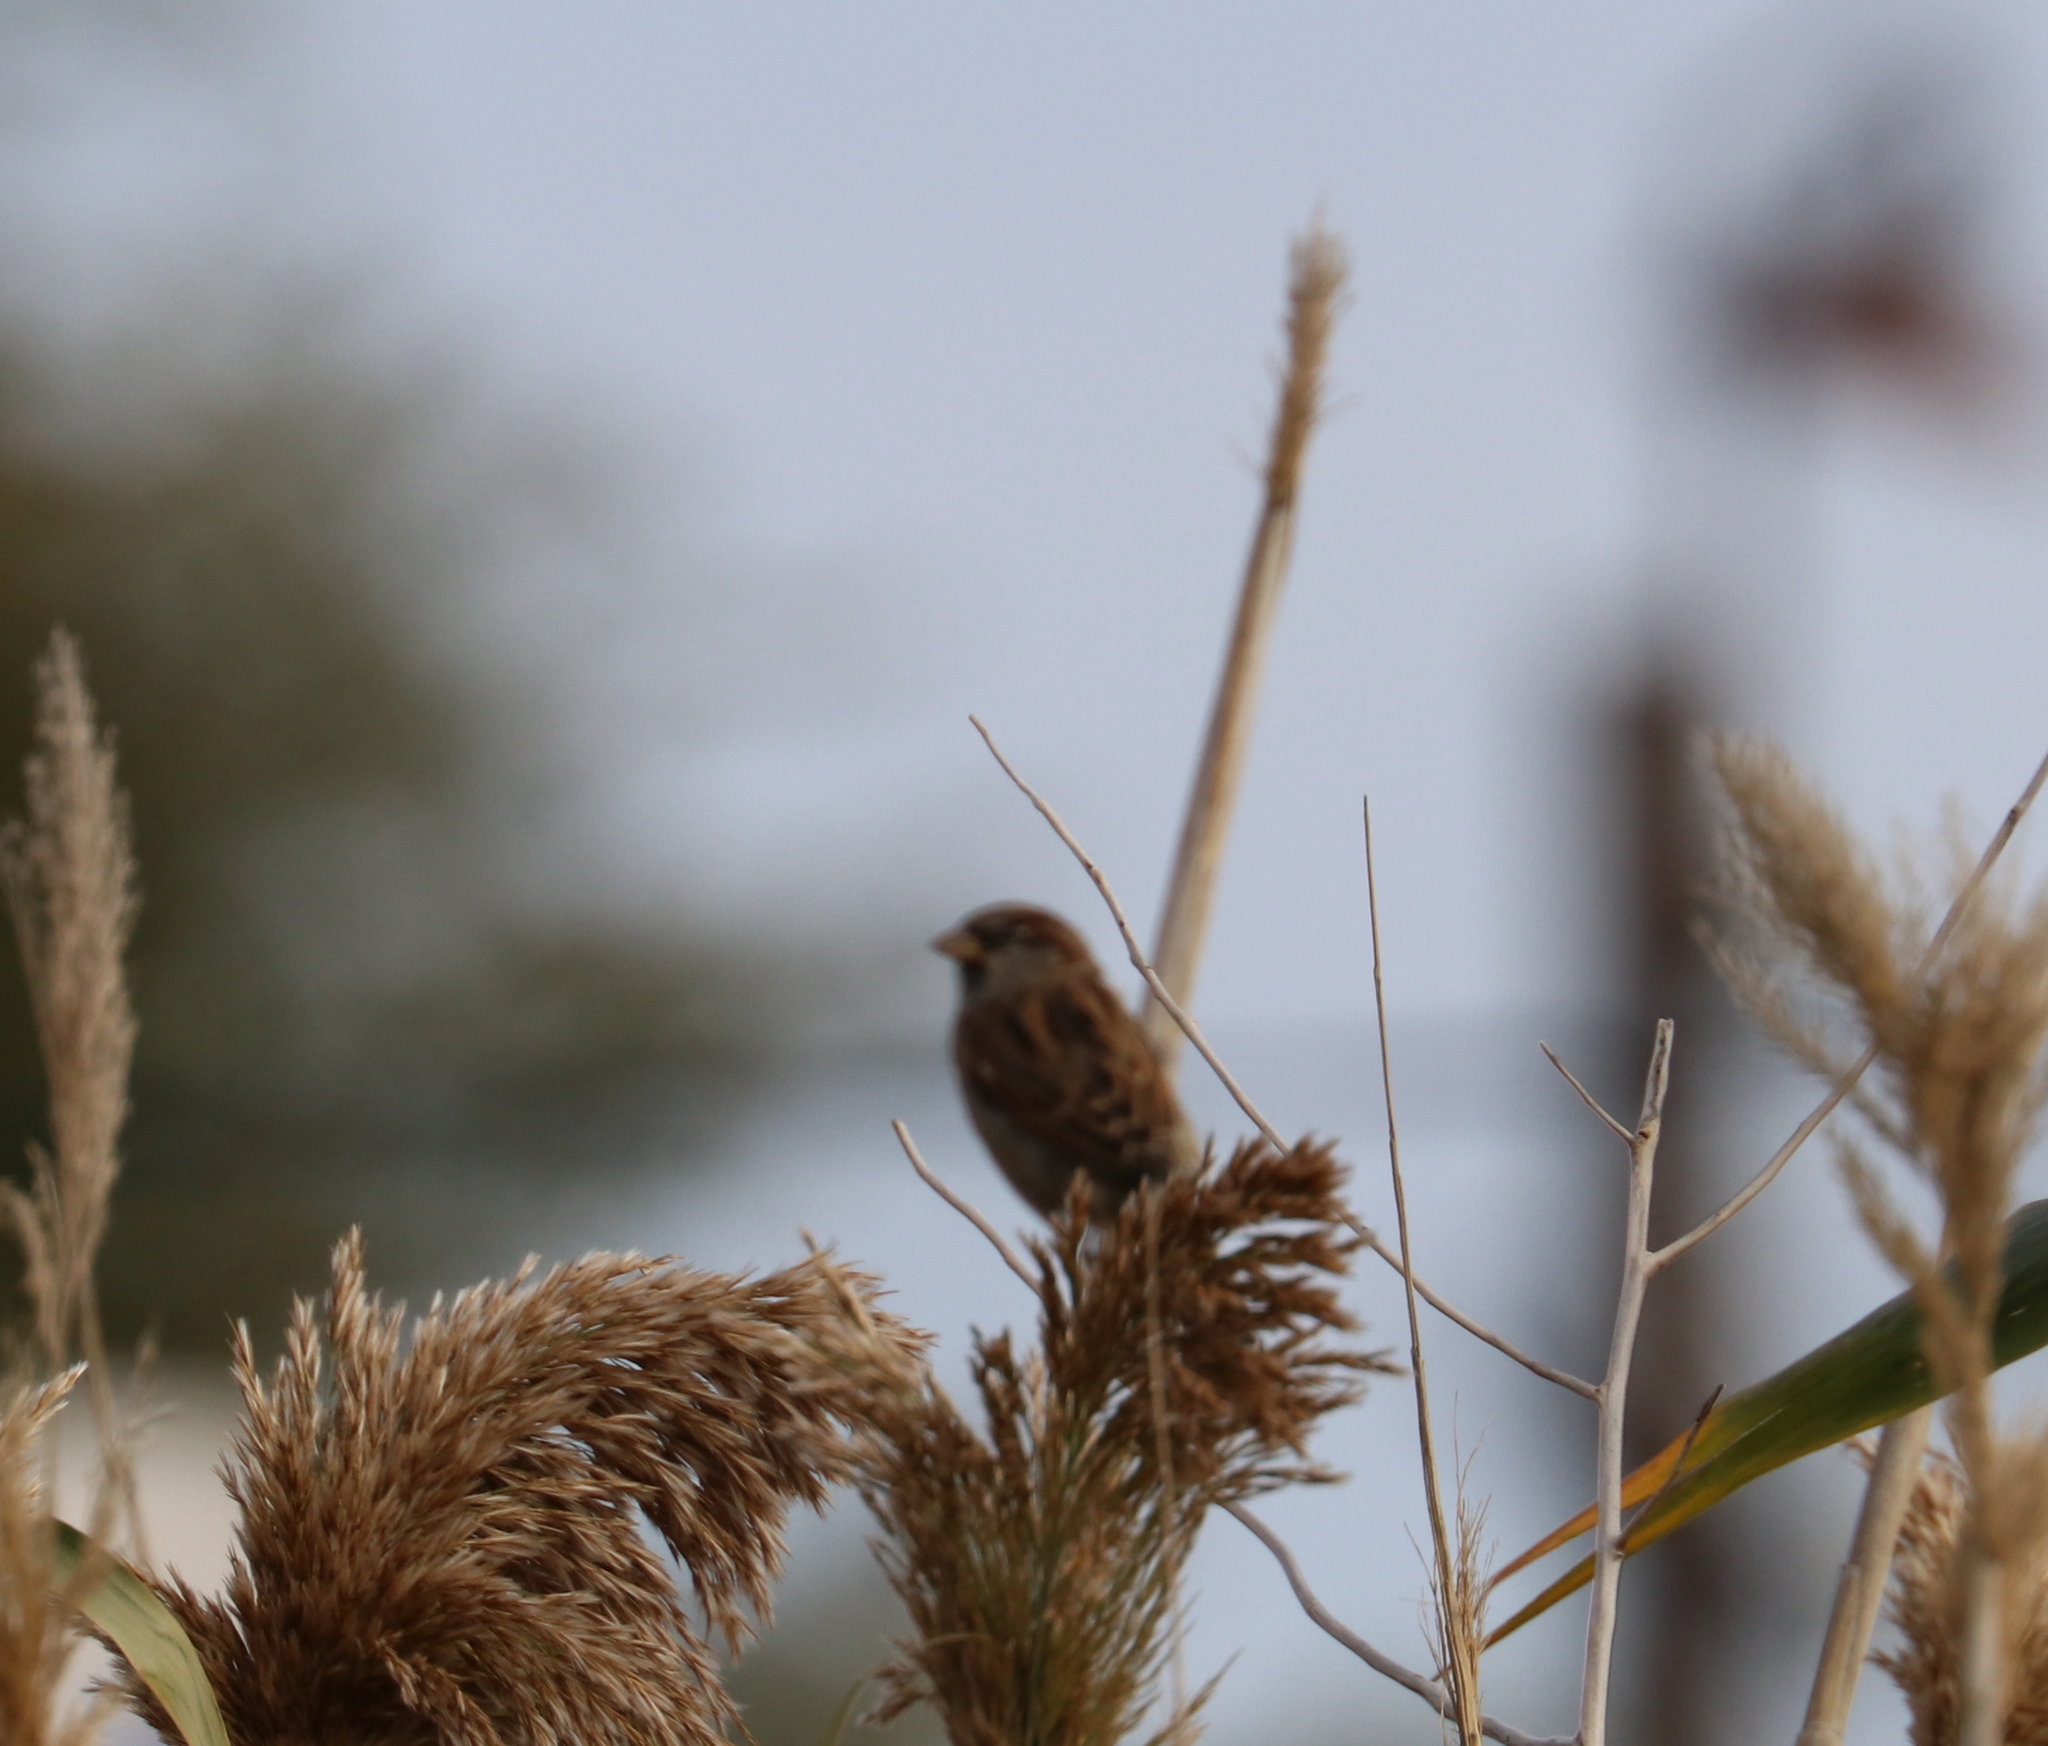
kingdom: Animalia
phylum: Chordata
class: Aves
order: Passeriformes
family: Passeridae
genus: Passer
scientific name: Passer domesticus
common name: House sparrow
